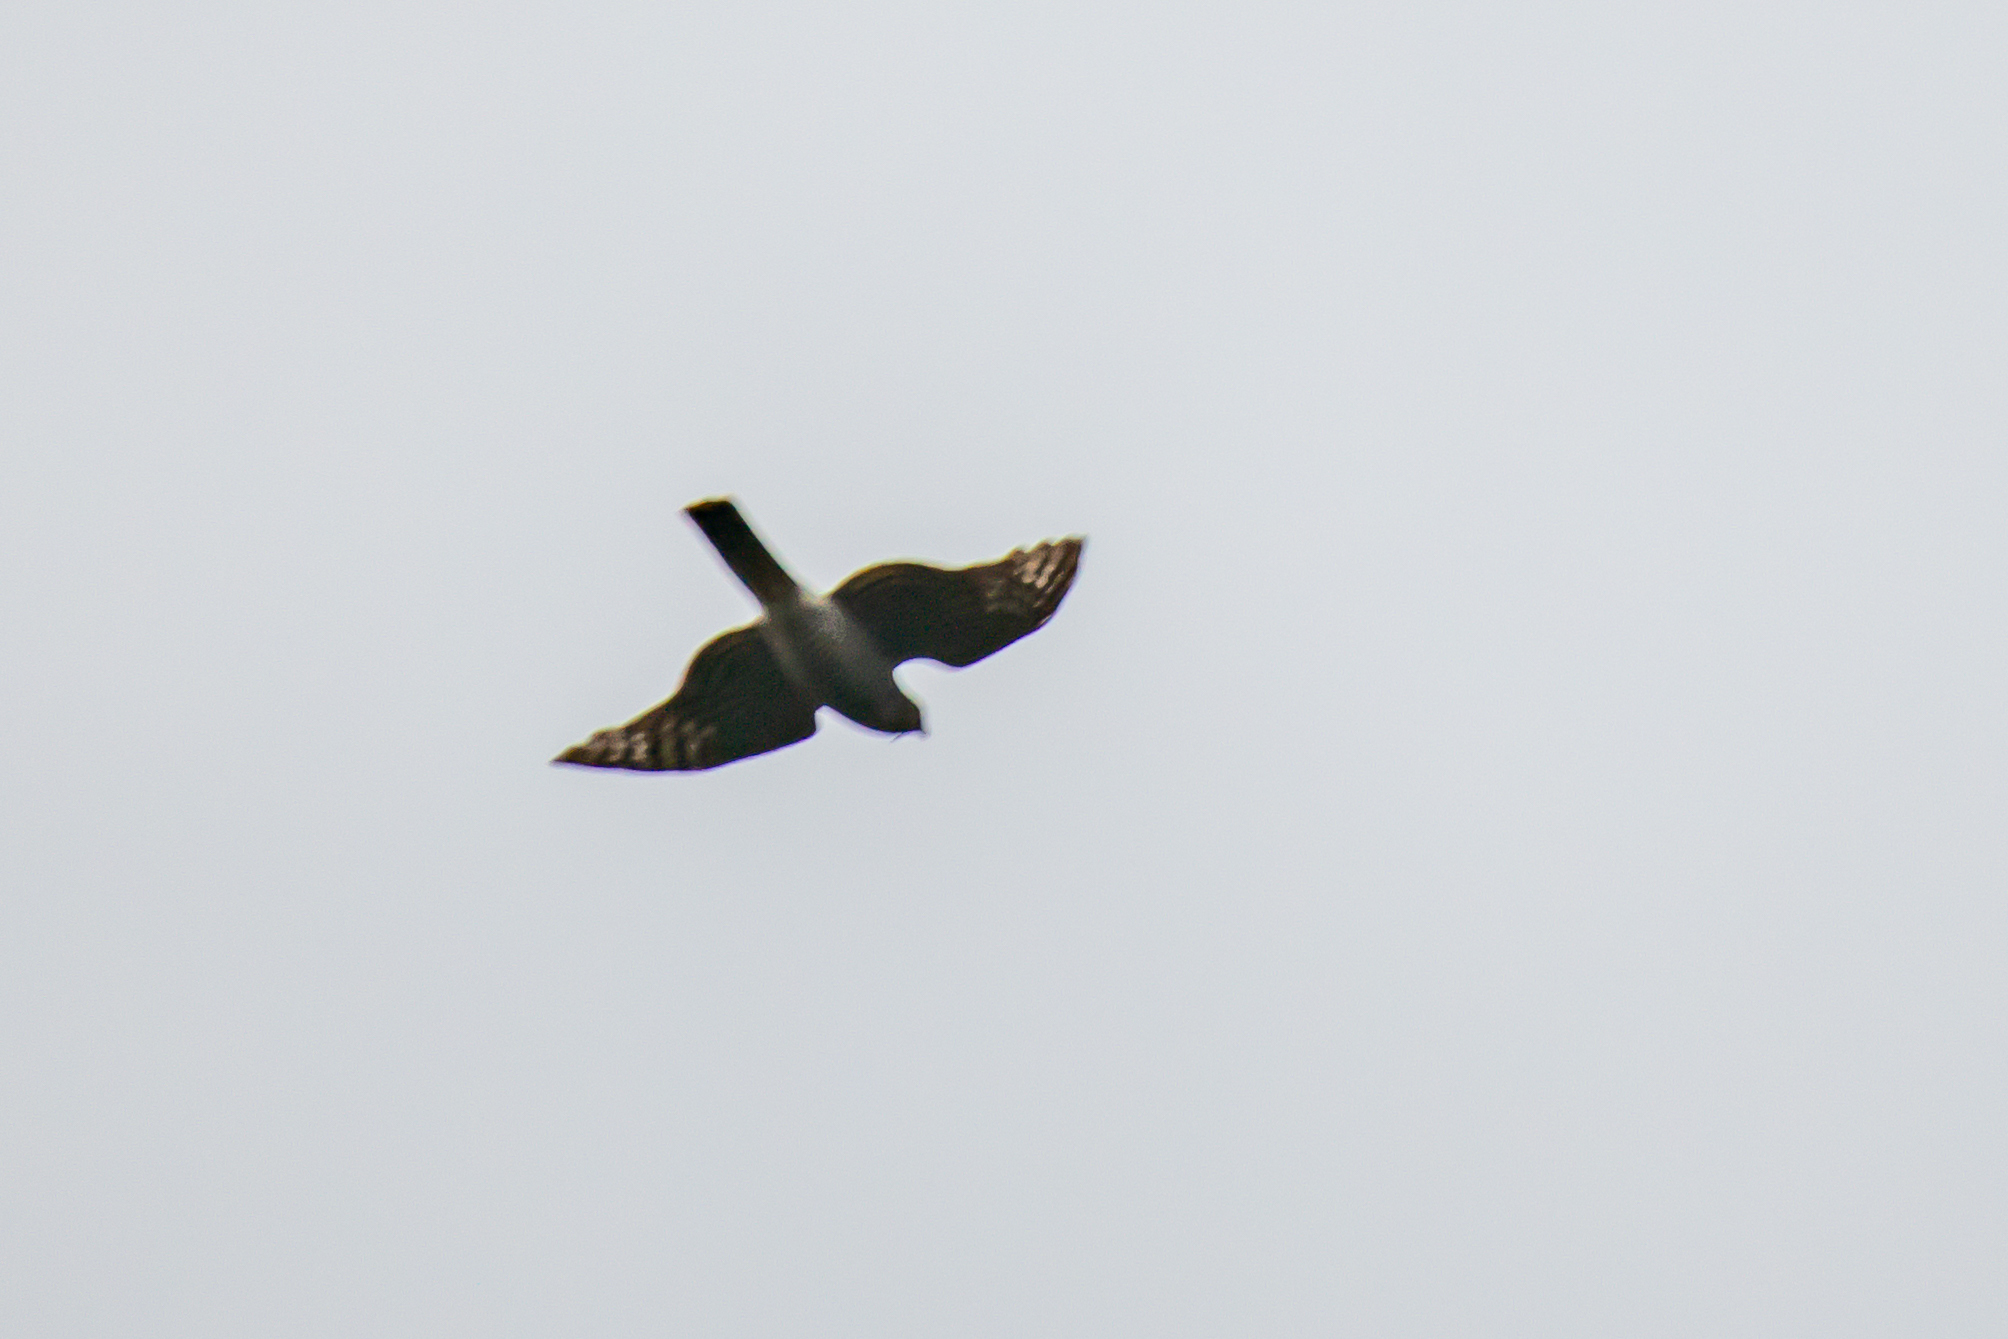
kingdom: Animalia
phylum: Chordata
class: Aves
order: Accipitriformes
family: Accipitridae
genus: Accipiter
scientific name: Accipiter nisus
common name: Eurasian sparrowhawk
